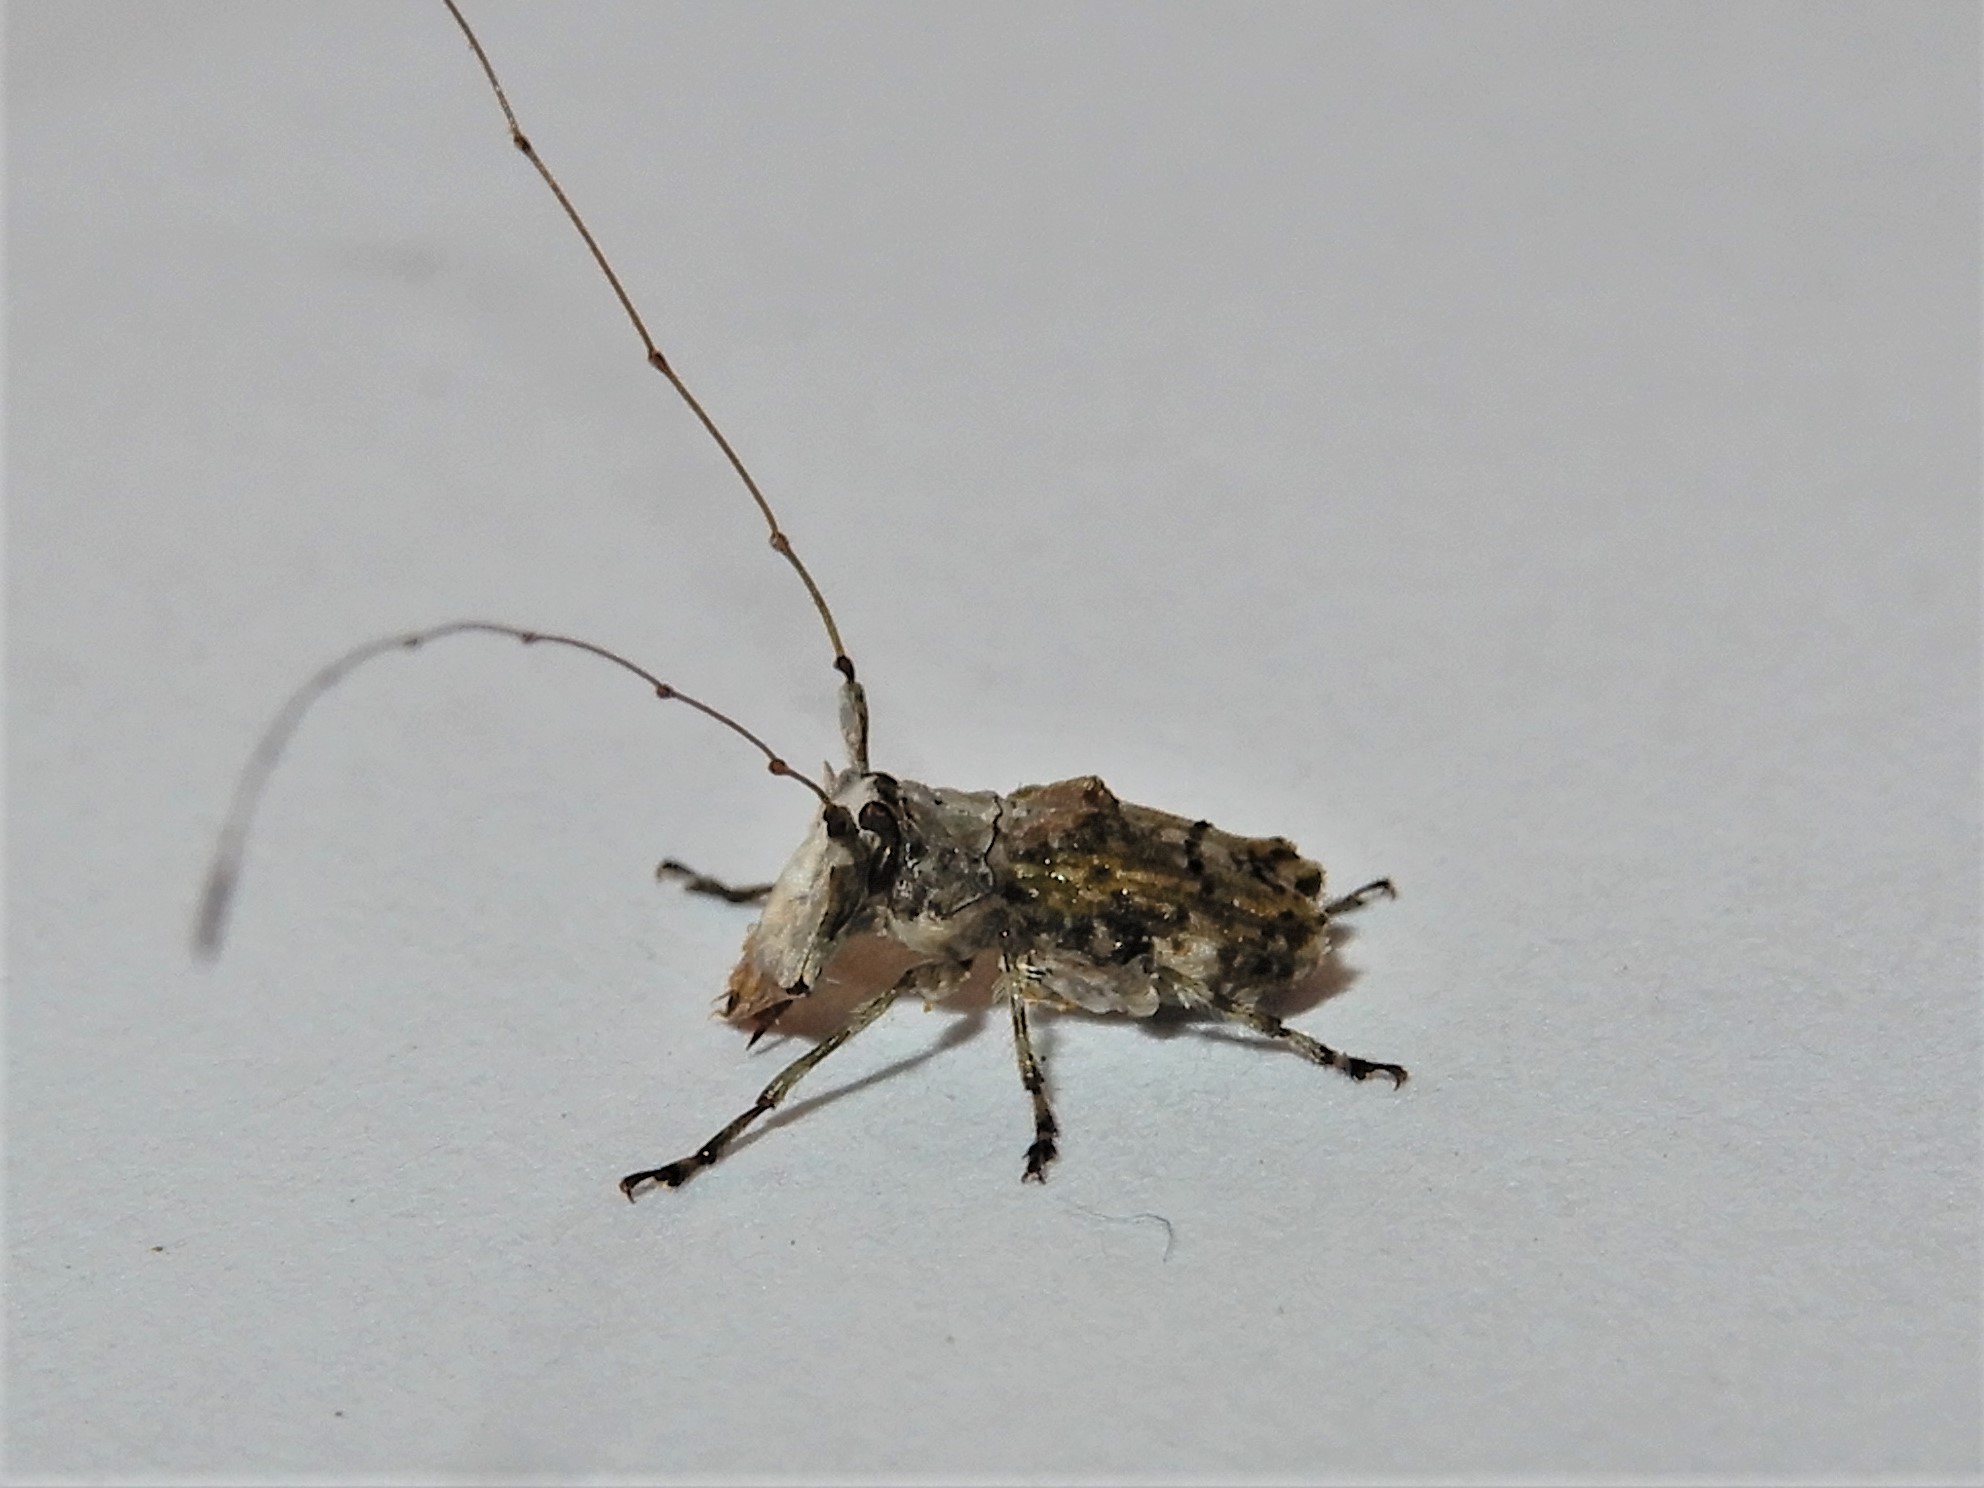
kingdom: Animalia
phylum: Arthropoda
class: Insecta
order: Coleoptera
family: Anthribidae
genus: Hoherius
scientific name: Hoherius
